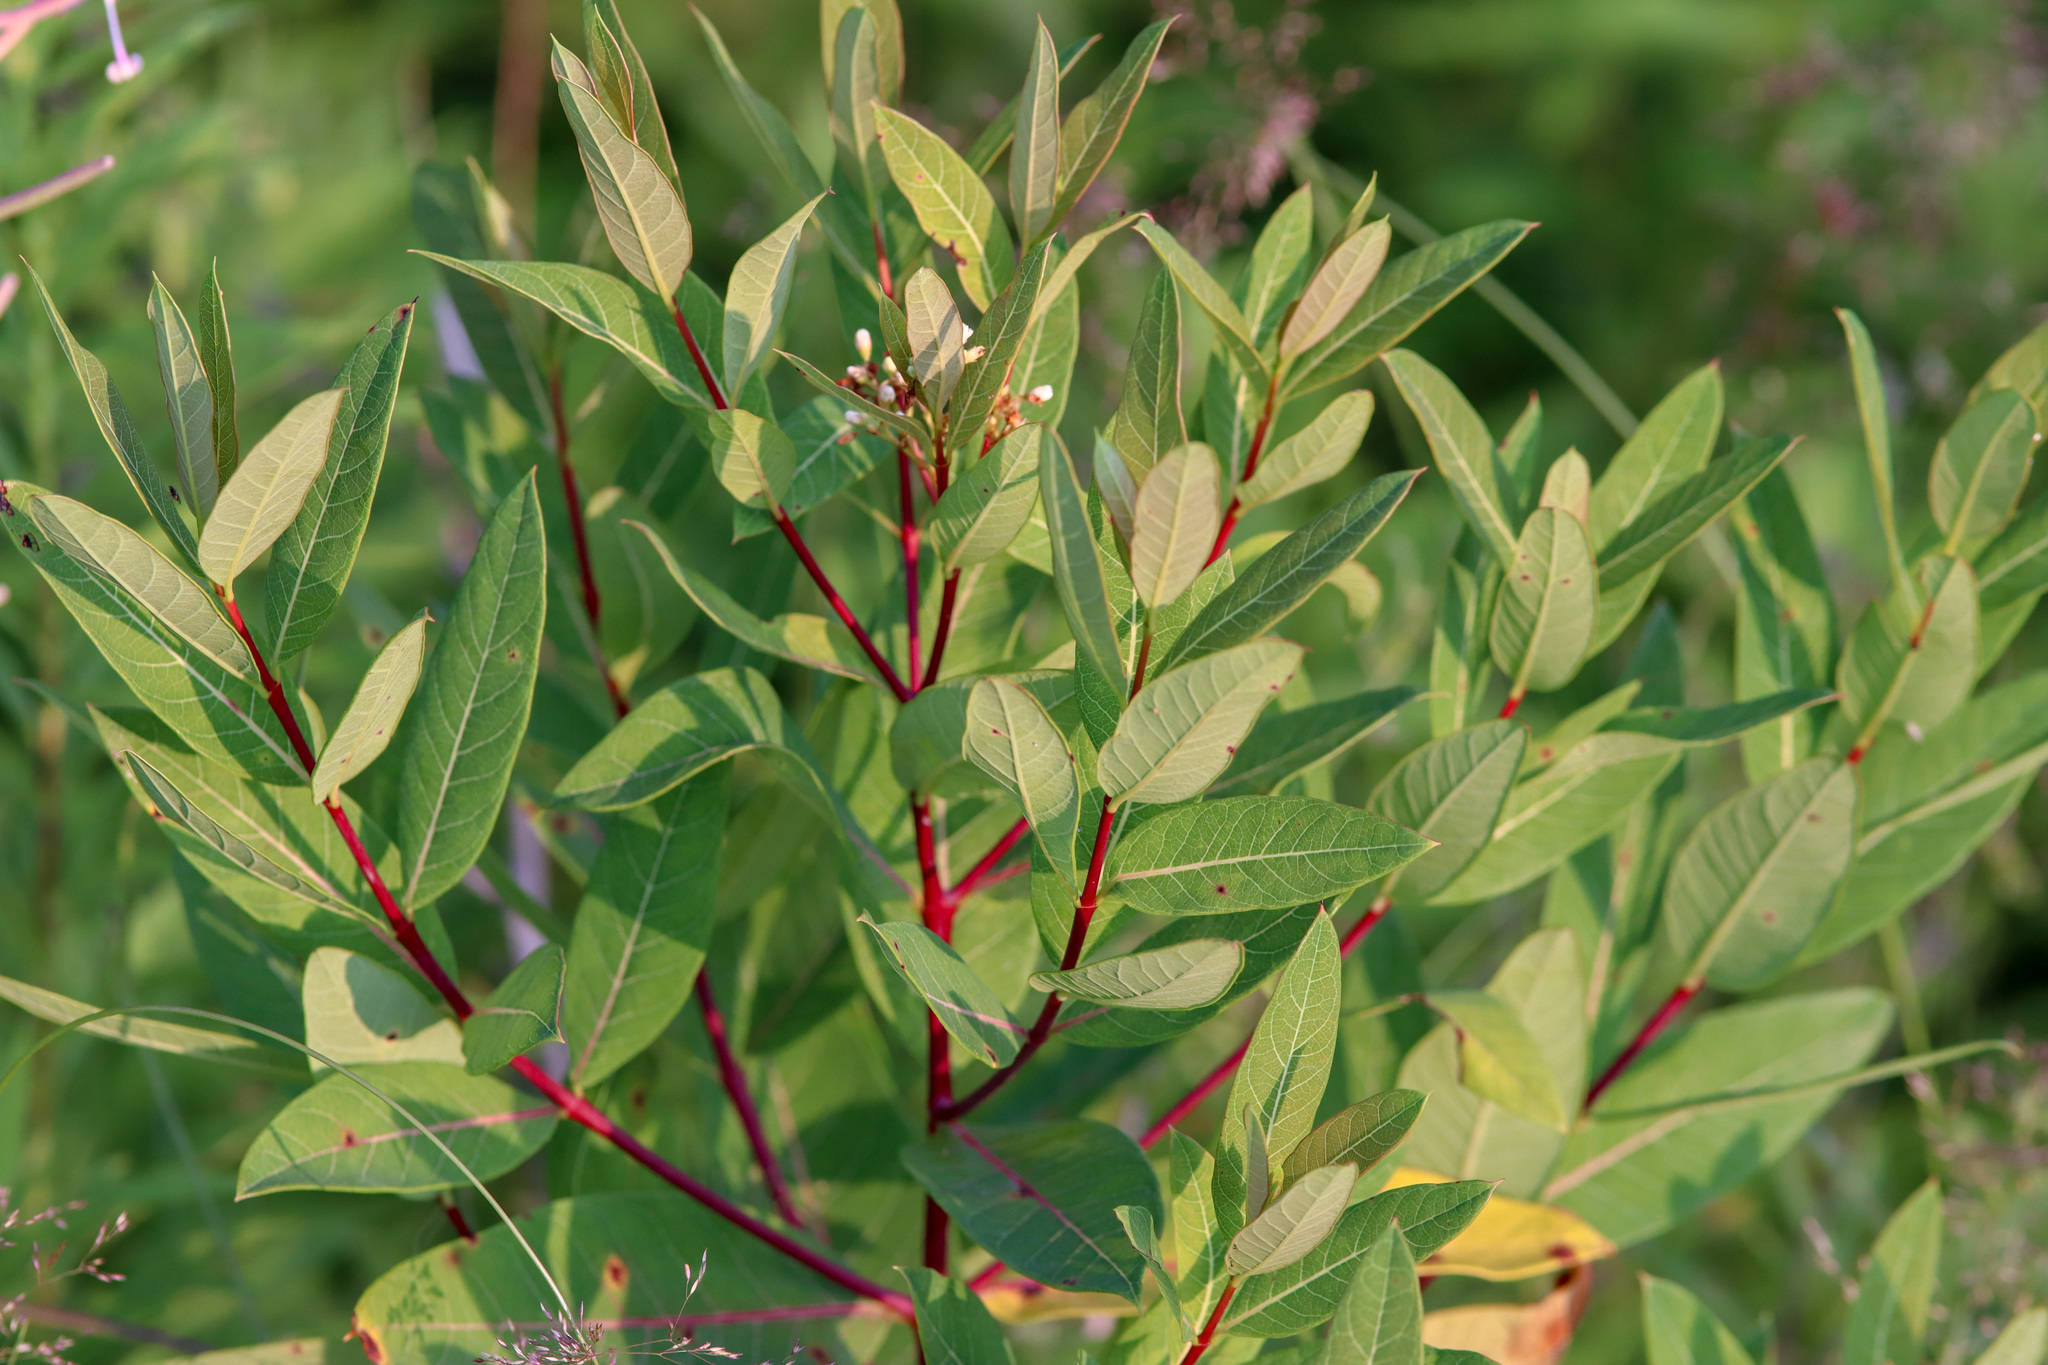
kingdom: Plantae
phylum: Tracheophyta
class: Magnoliopsida
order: Gentianales
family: Apocynaceae
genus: Apocynum
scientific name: Apocynum cannabinum
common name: Hemp dogbane
